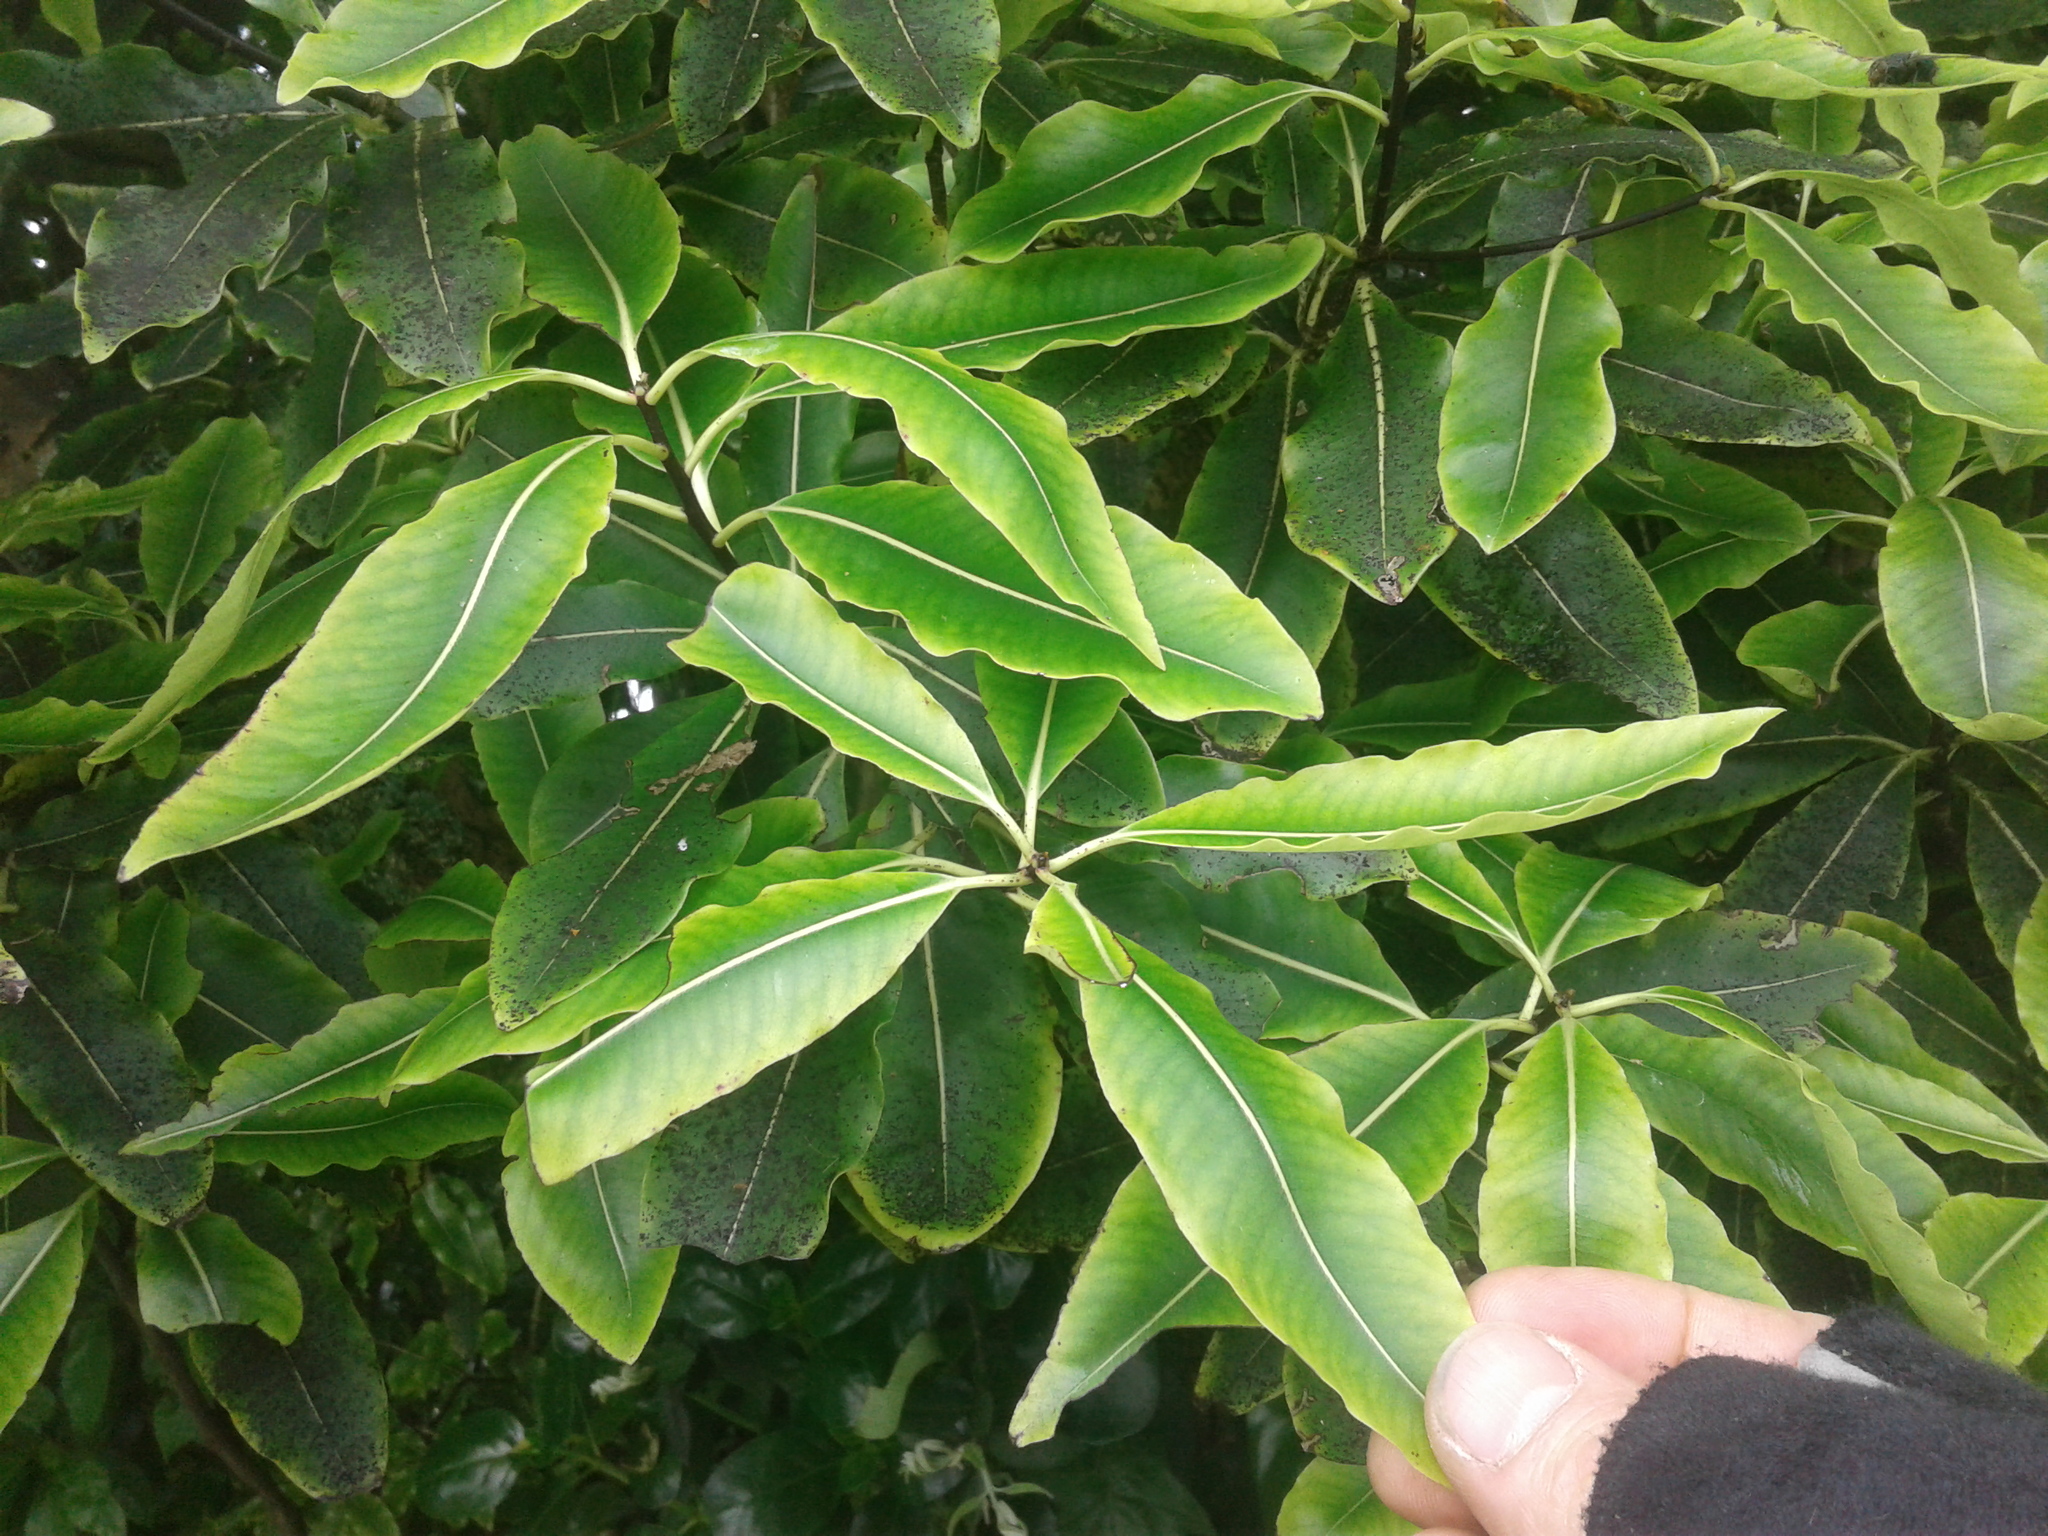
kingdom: Plantae
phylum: Tracheophyta
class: Magnoliopsida
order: Apiales
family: Pittosporaceae
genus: Pittosporum
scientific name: Pittosporum eugenioides
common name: Lemonwood
